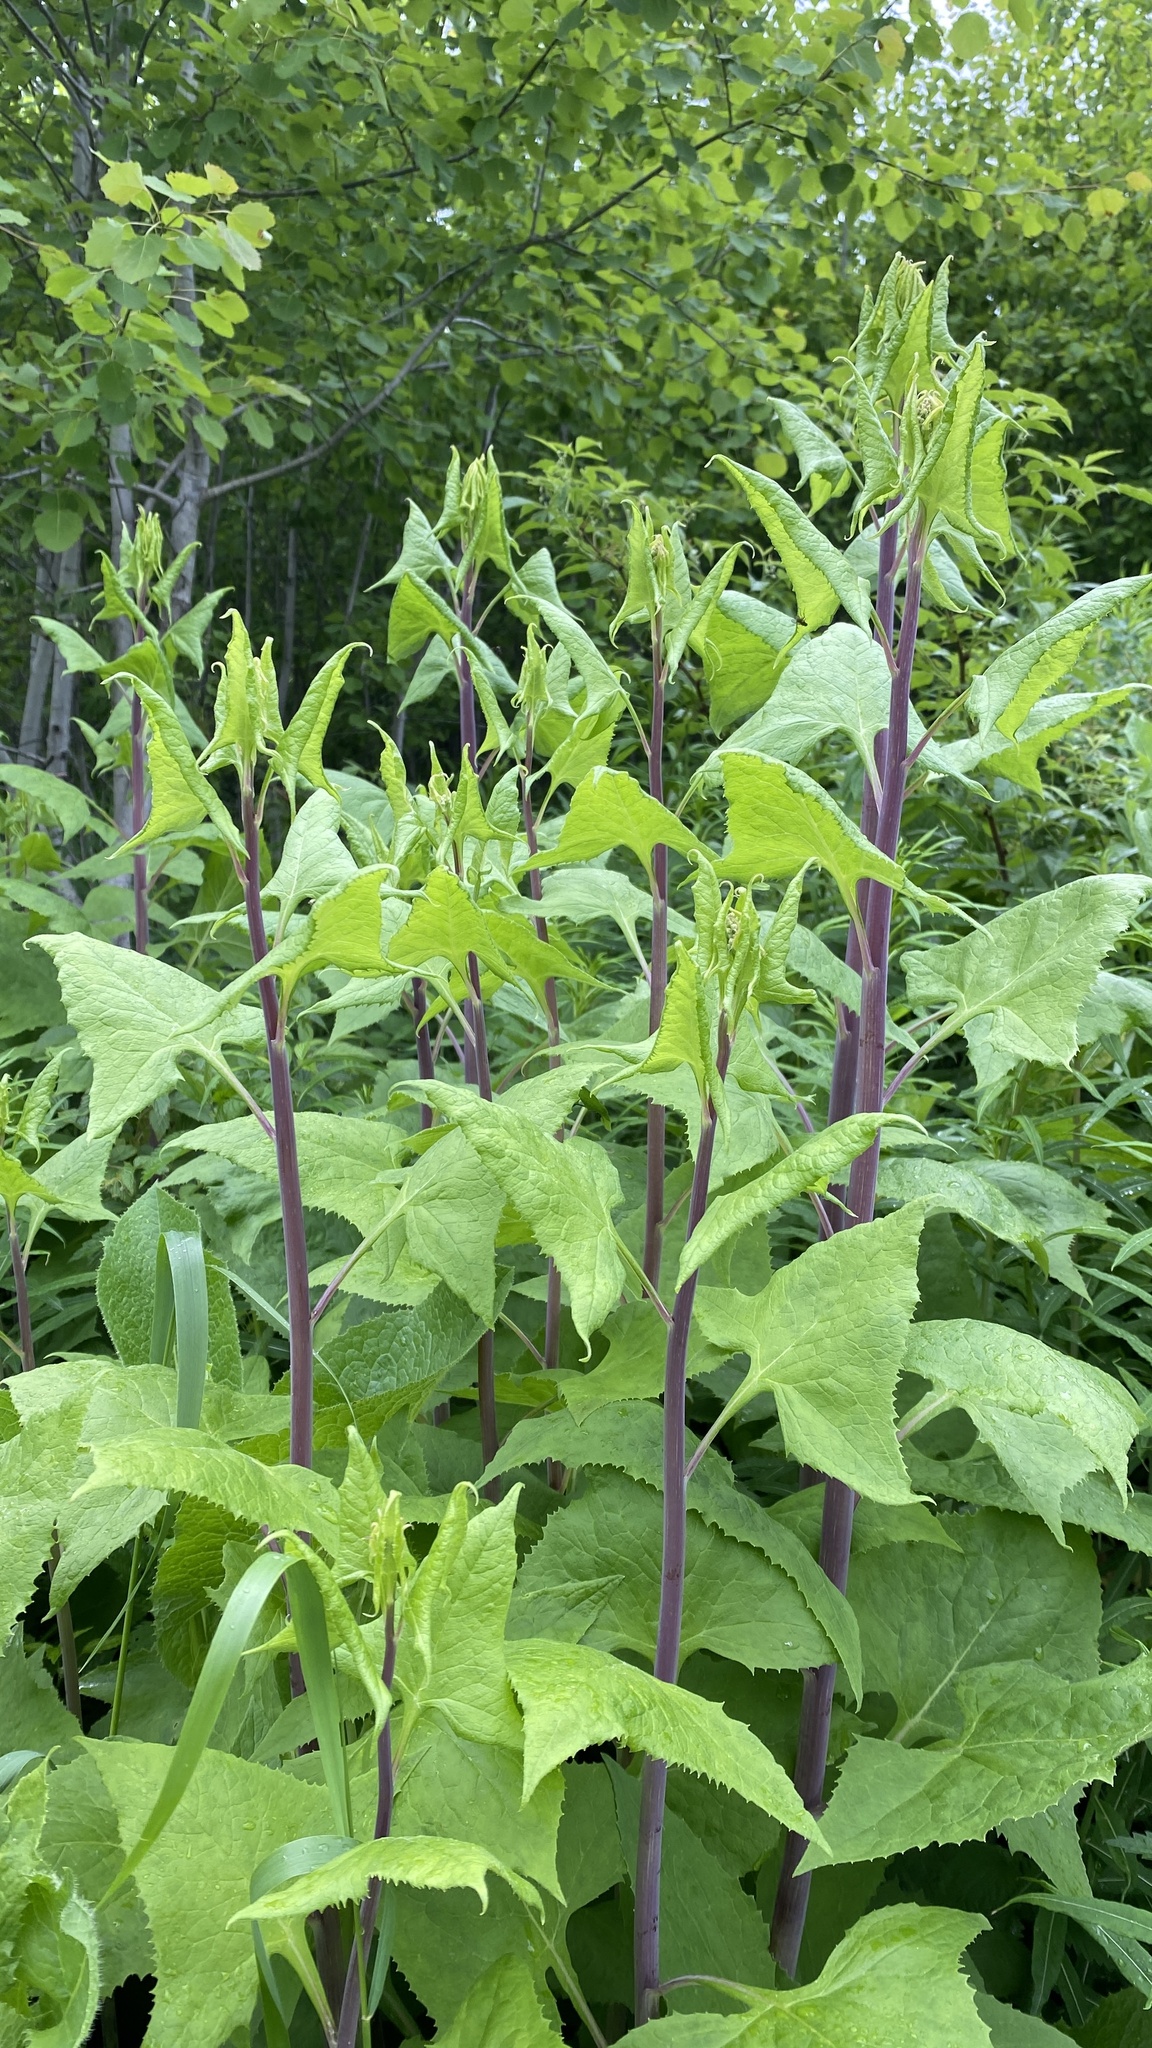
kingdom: Plantae
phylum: Tracheophyta
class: Magnoliopsida
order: Asterales
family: Asteraceae
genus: Parasenecio
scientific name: Parasenecio hastatus
